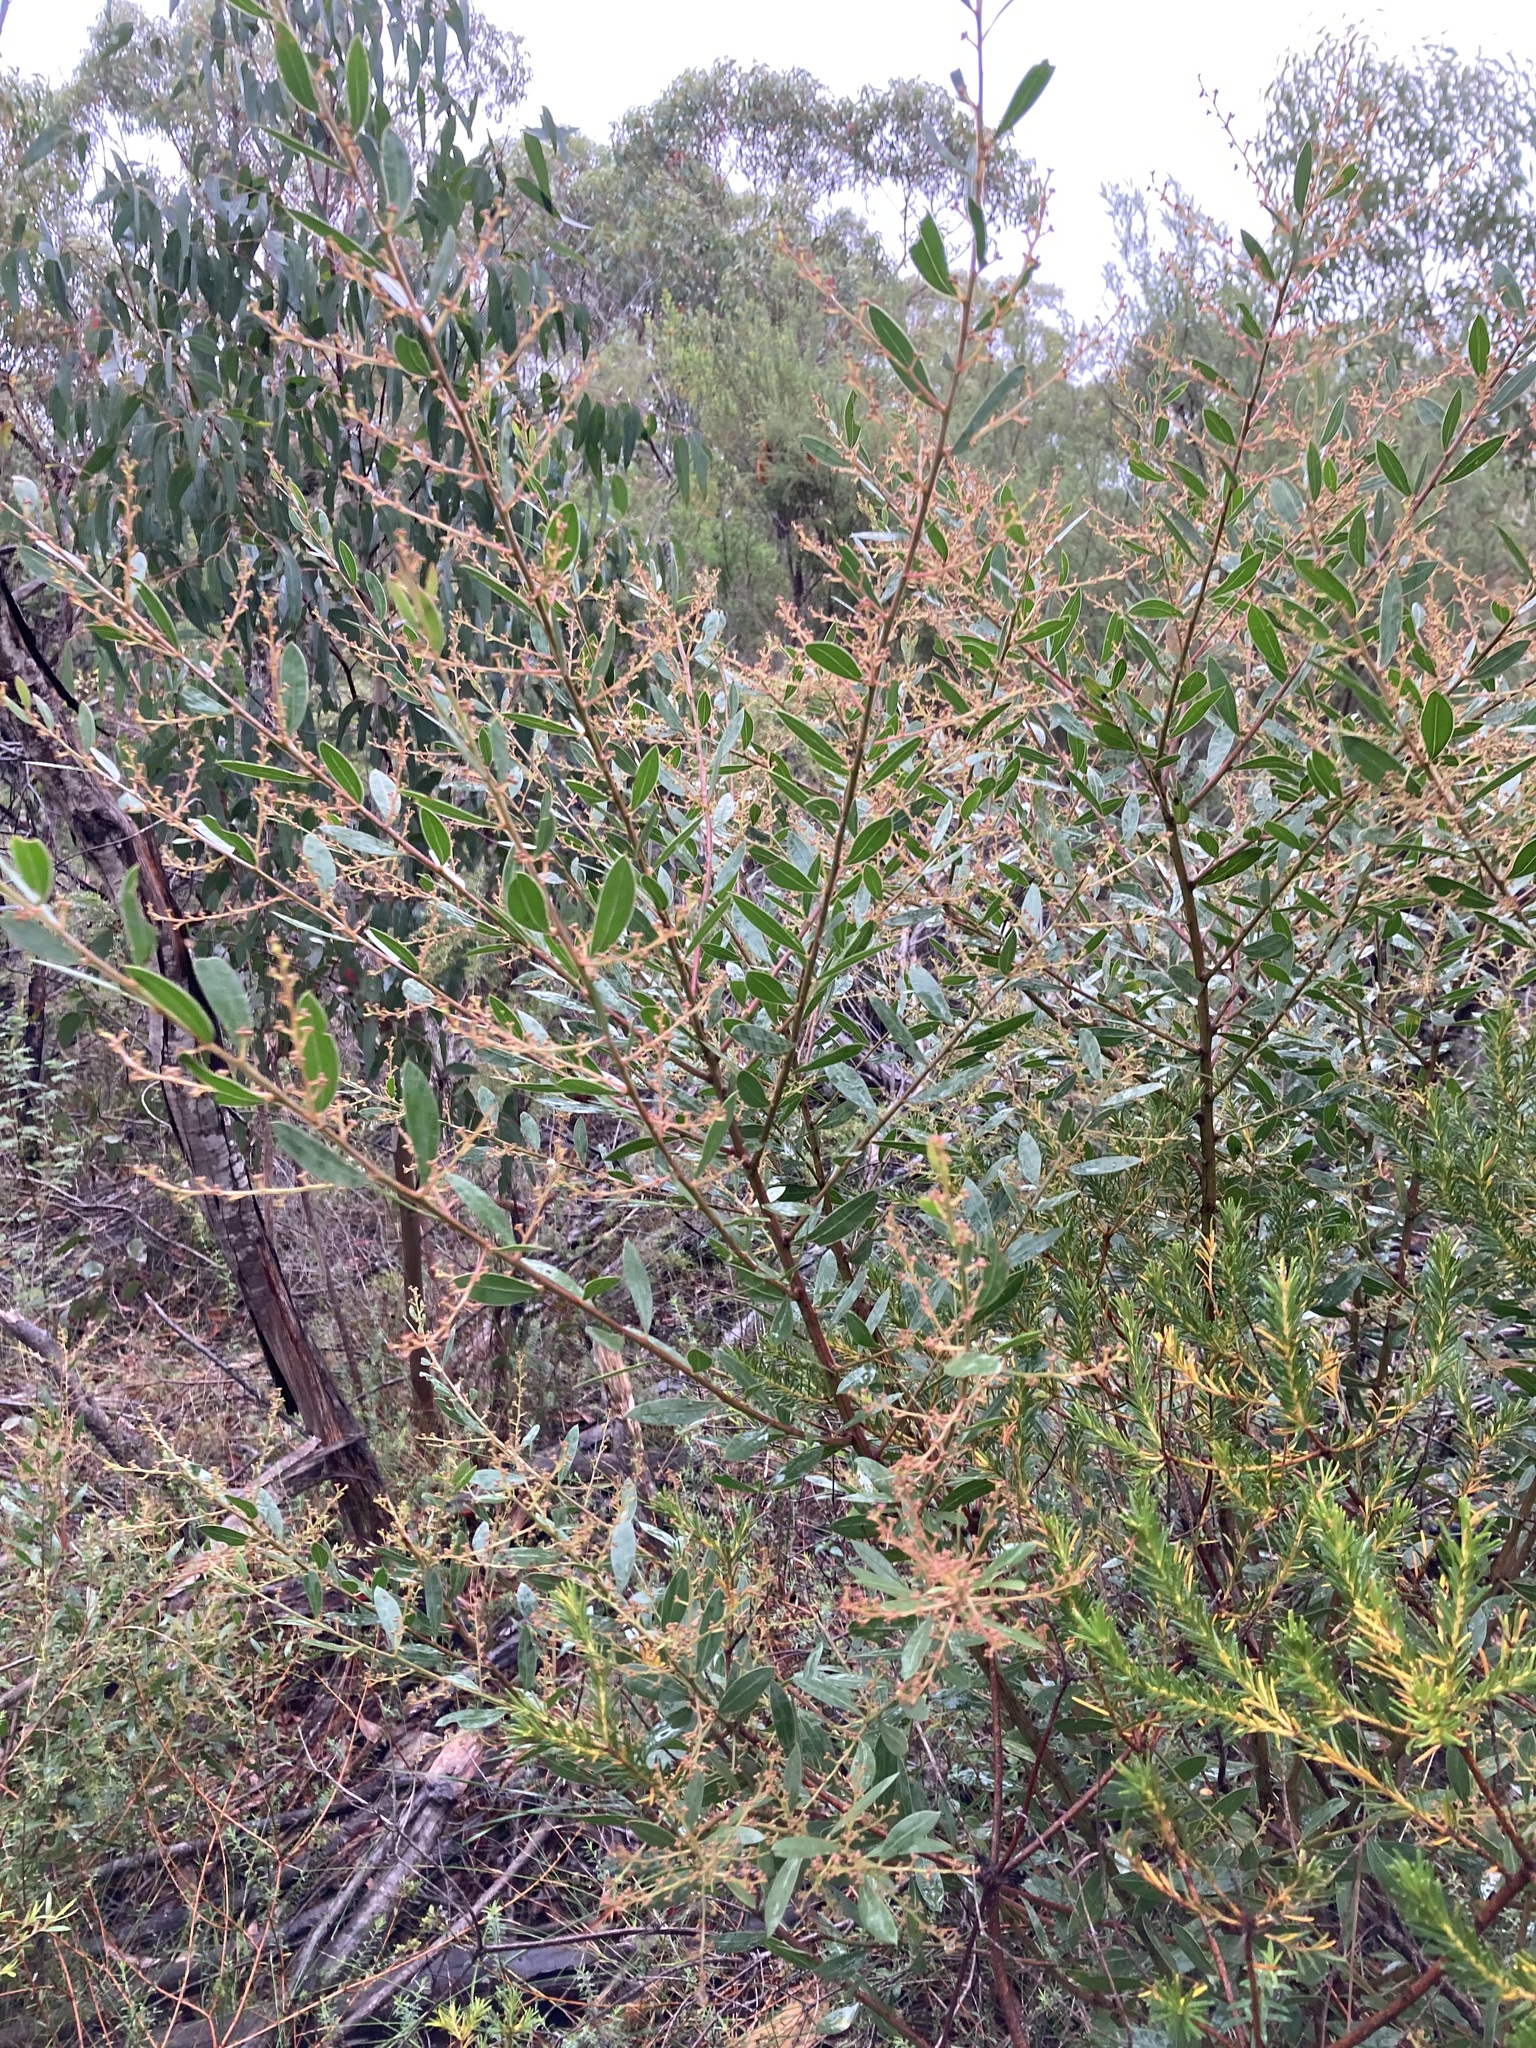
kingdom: Plantae
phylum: Tracheophyta
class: Magnoliopsida
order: Fabales
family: Fabaceae
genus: Acacia
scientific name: Acacia myrtifolia
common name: Myrtle wattle
